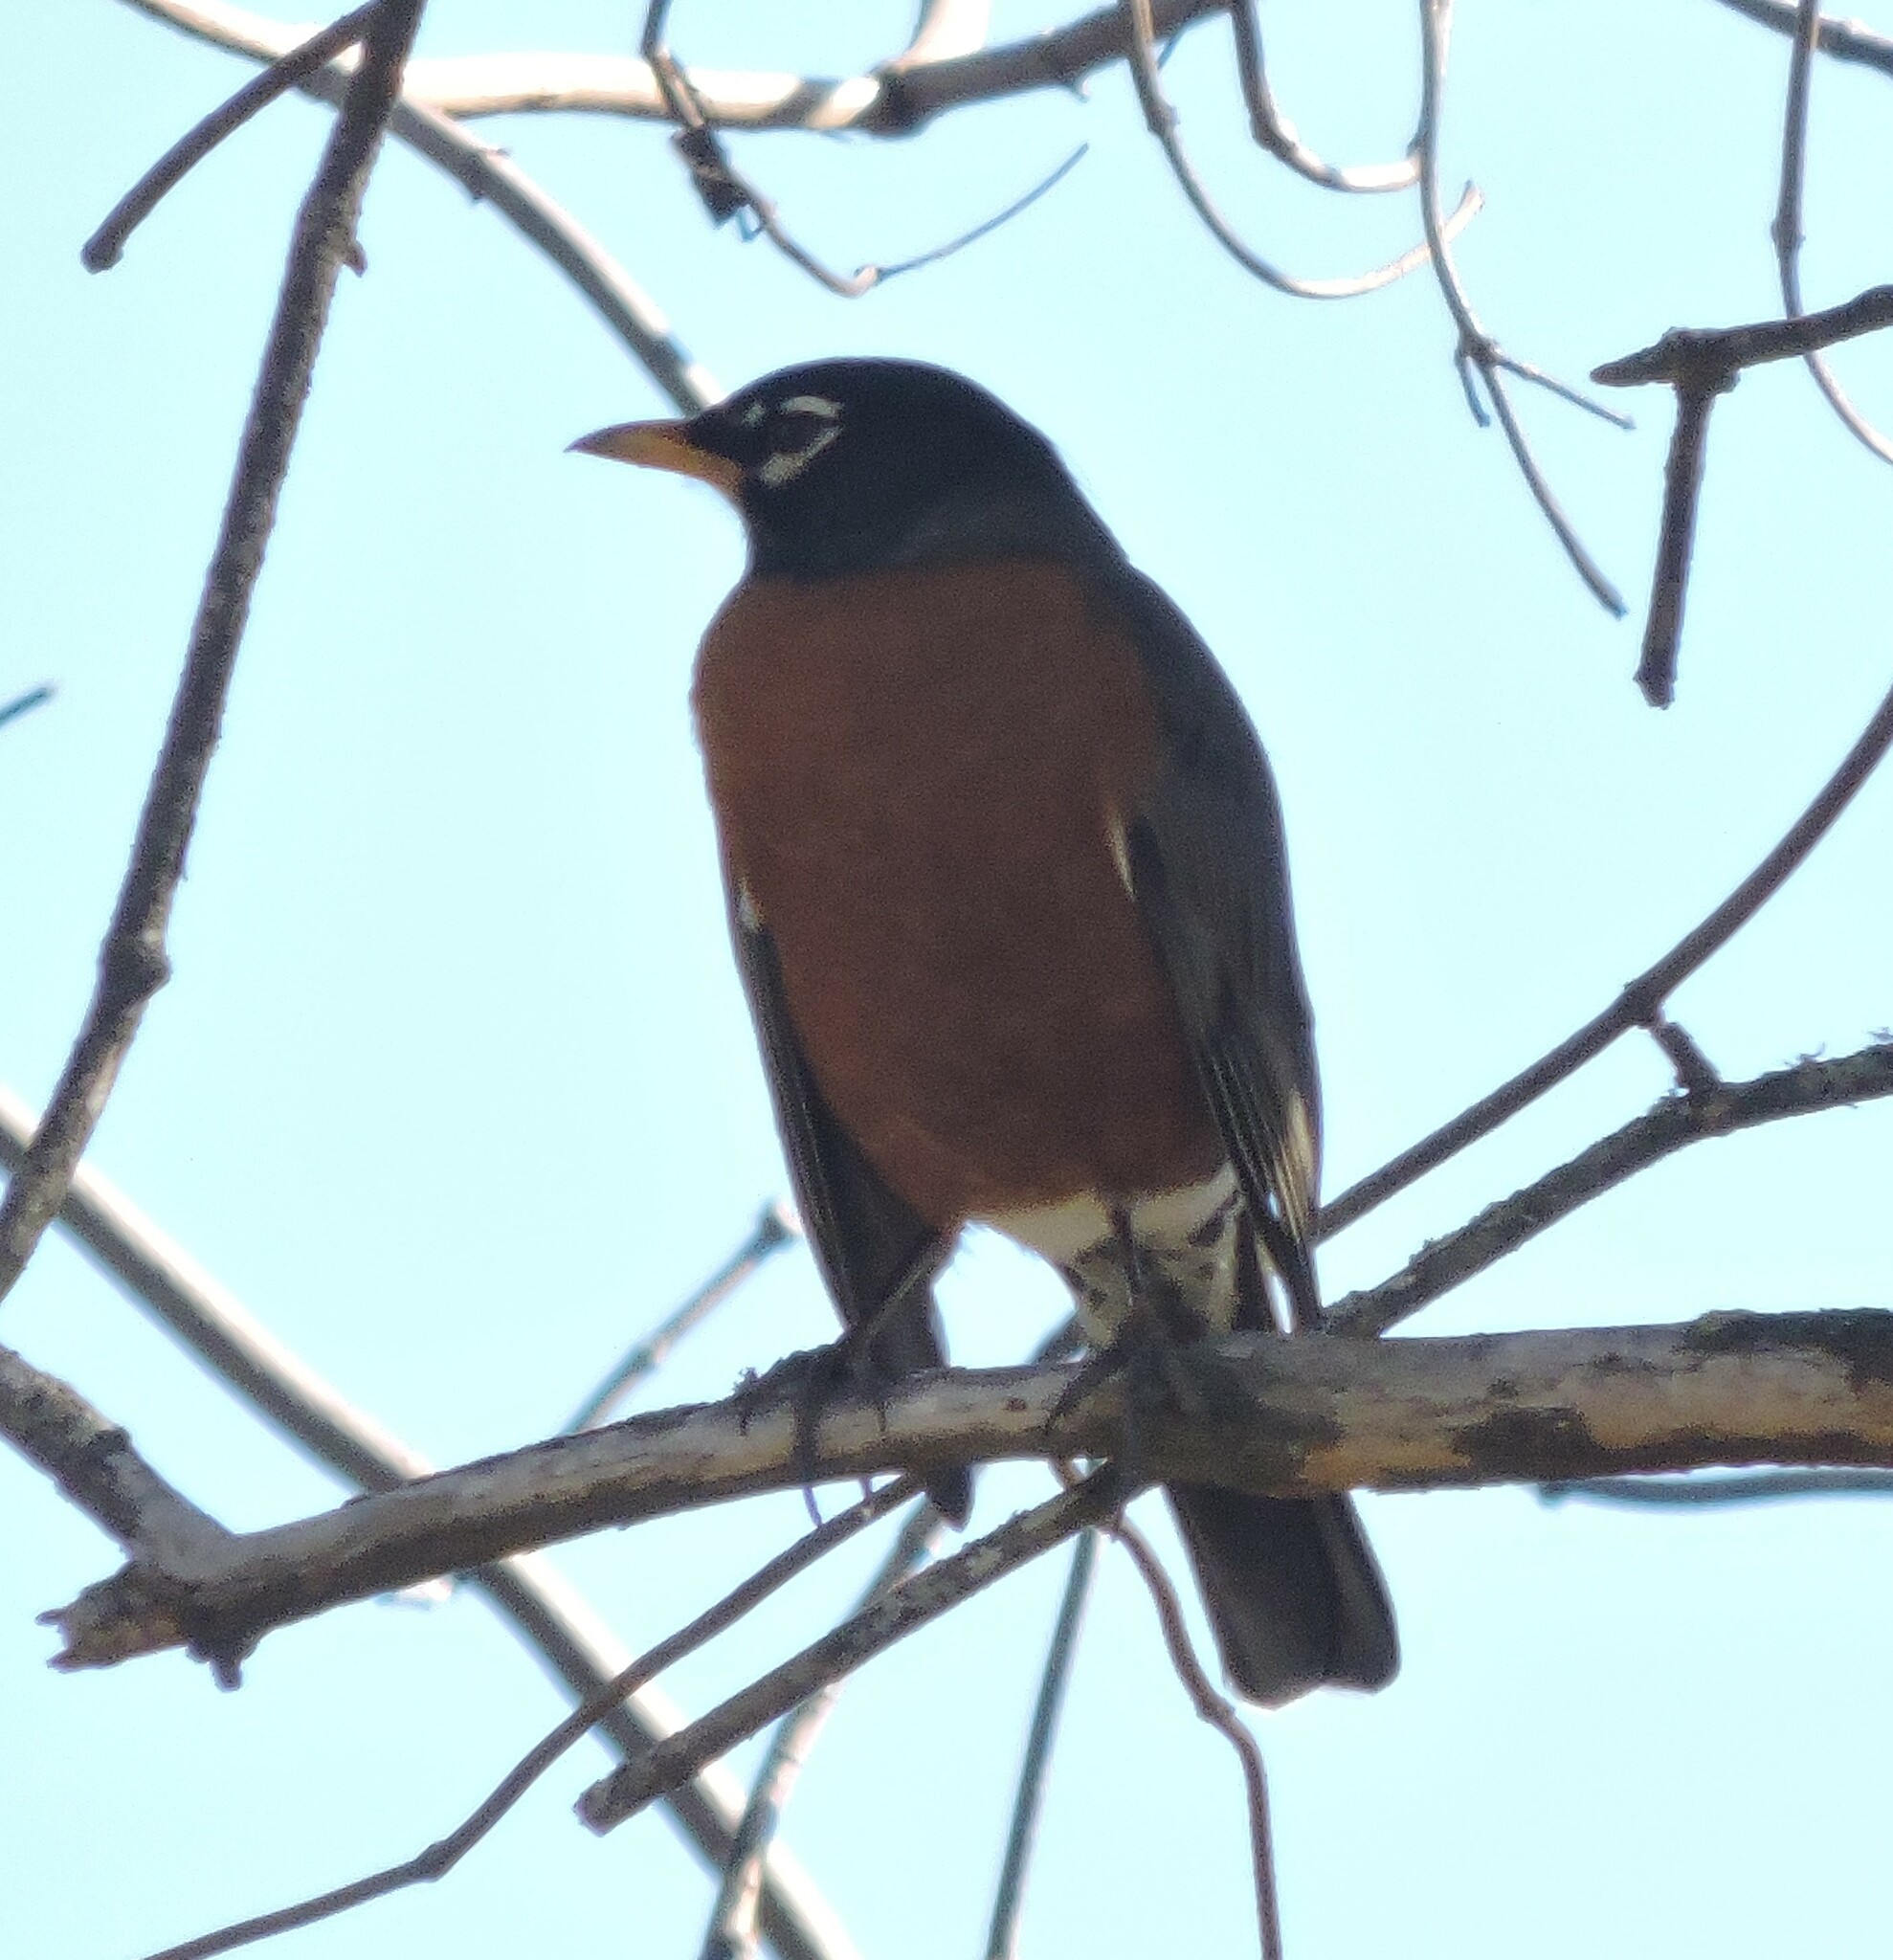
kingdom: Animalia
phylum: Chordata
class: Aves
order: Passeriformes
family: Turdidae
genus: Turdus
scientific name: Turdus migratorius
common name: American robin
